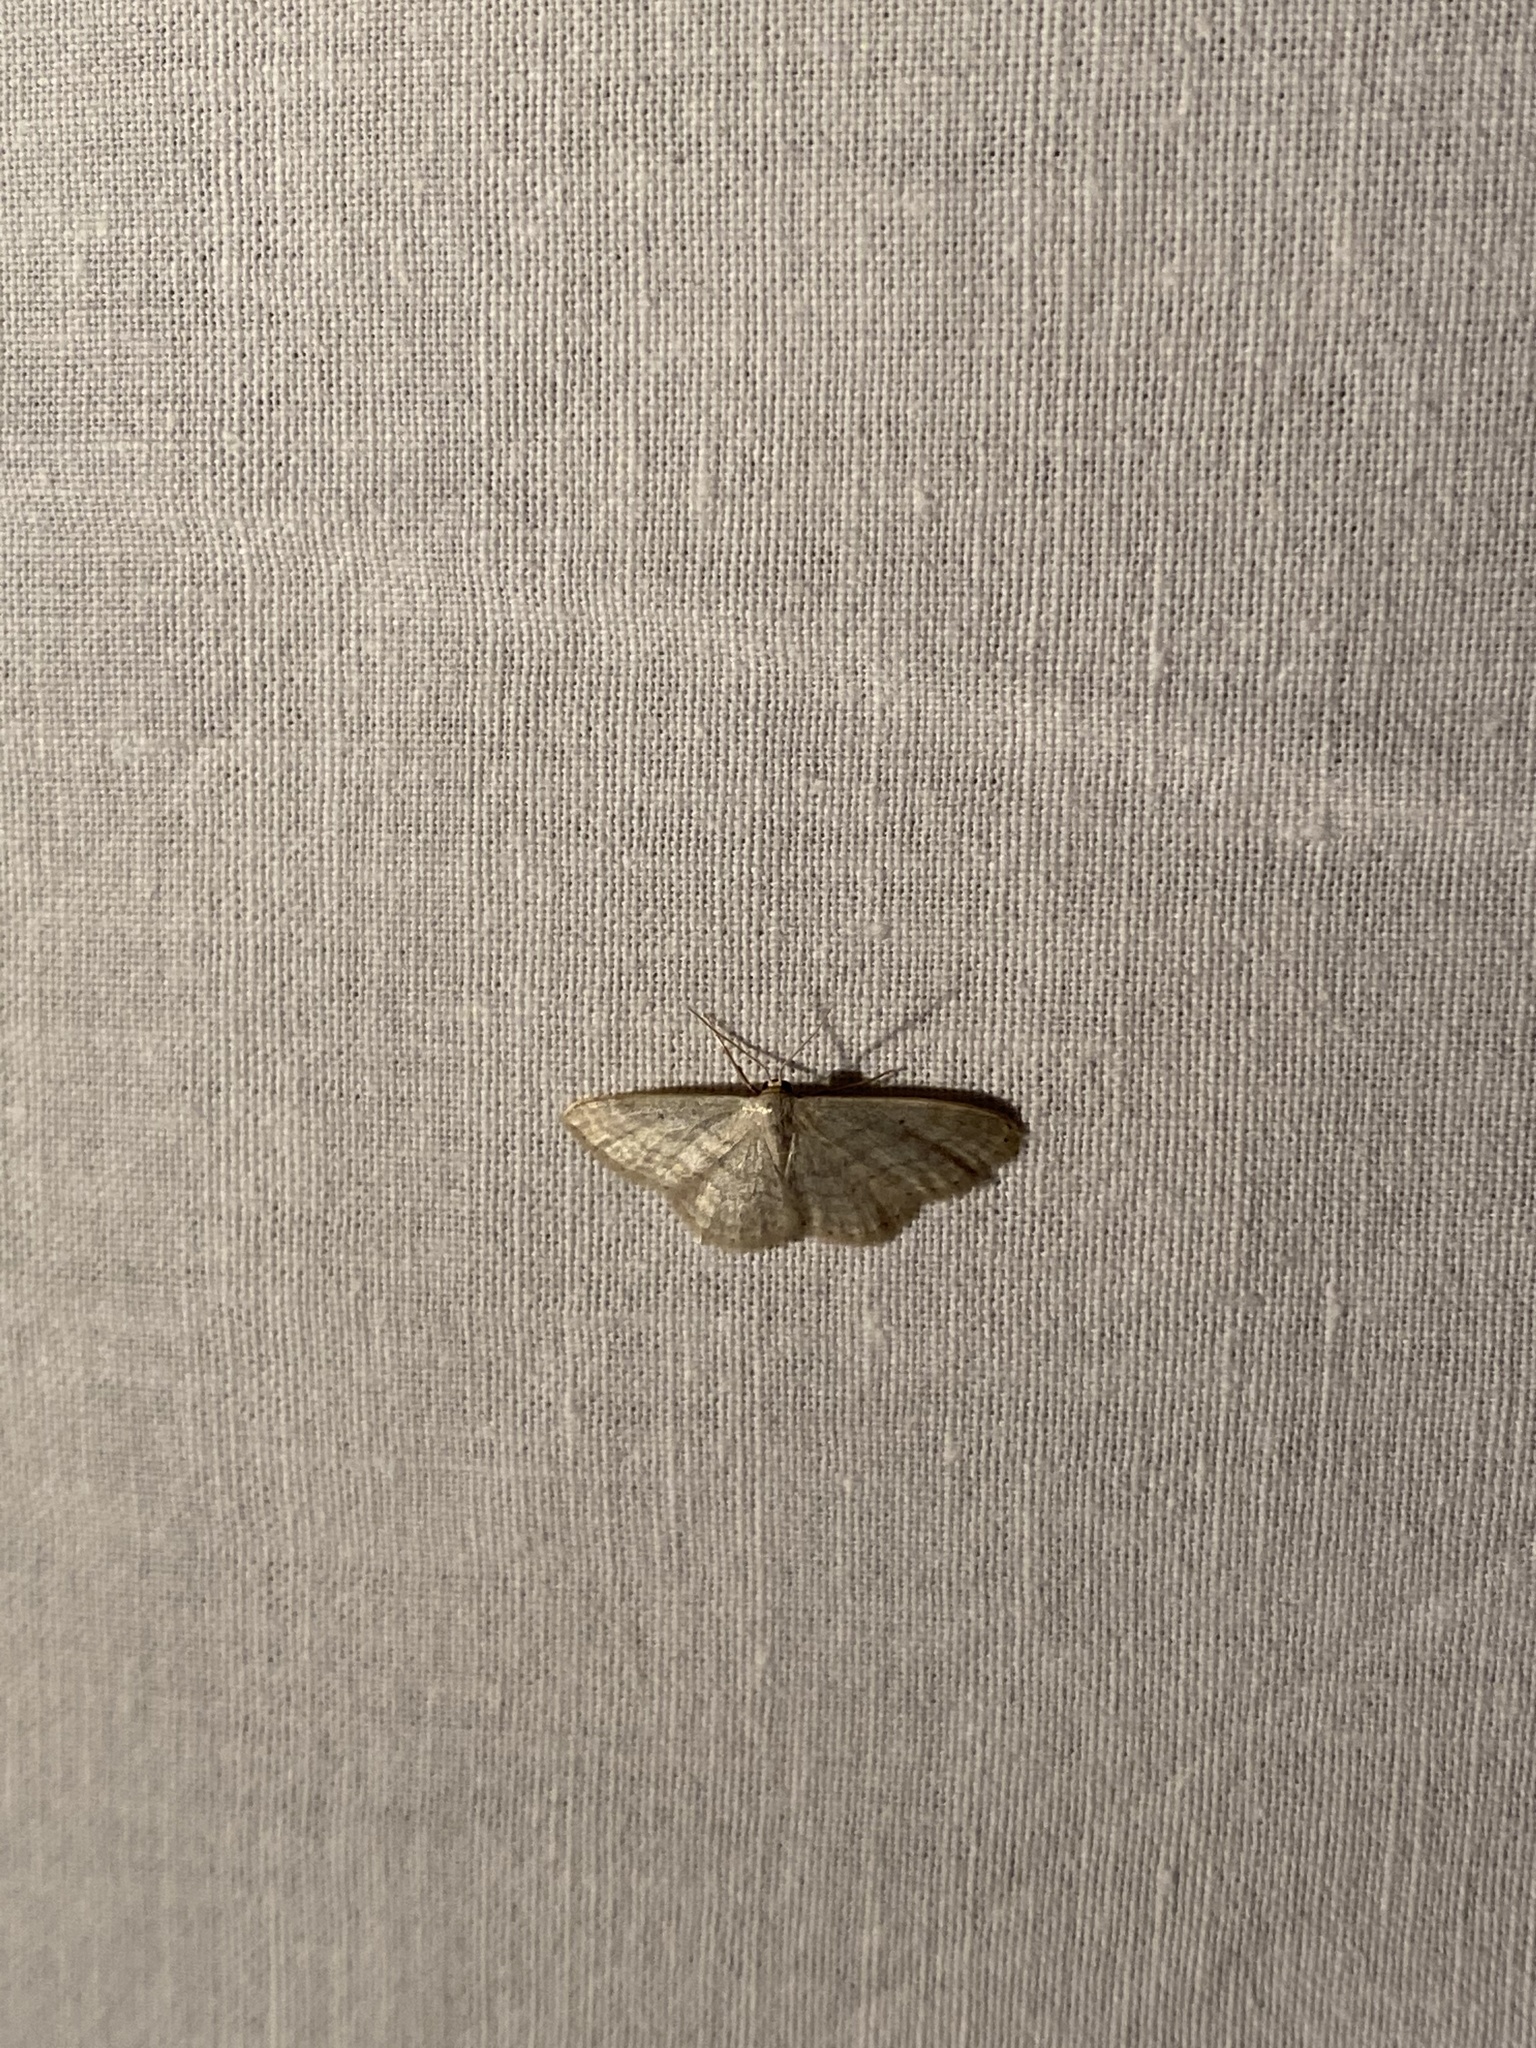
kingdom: Animalia
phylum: Arthropoda
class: Insecta
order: Lepidoptera
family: Geometridae
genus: Idaea
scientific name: Idaea subsericeata
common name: Satin wave
